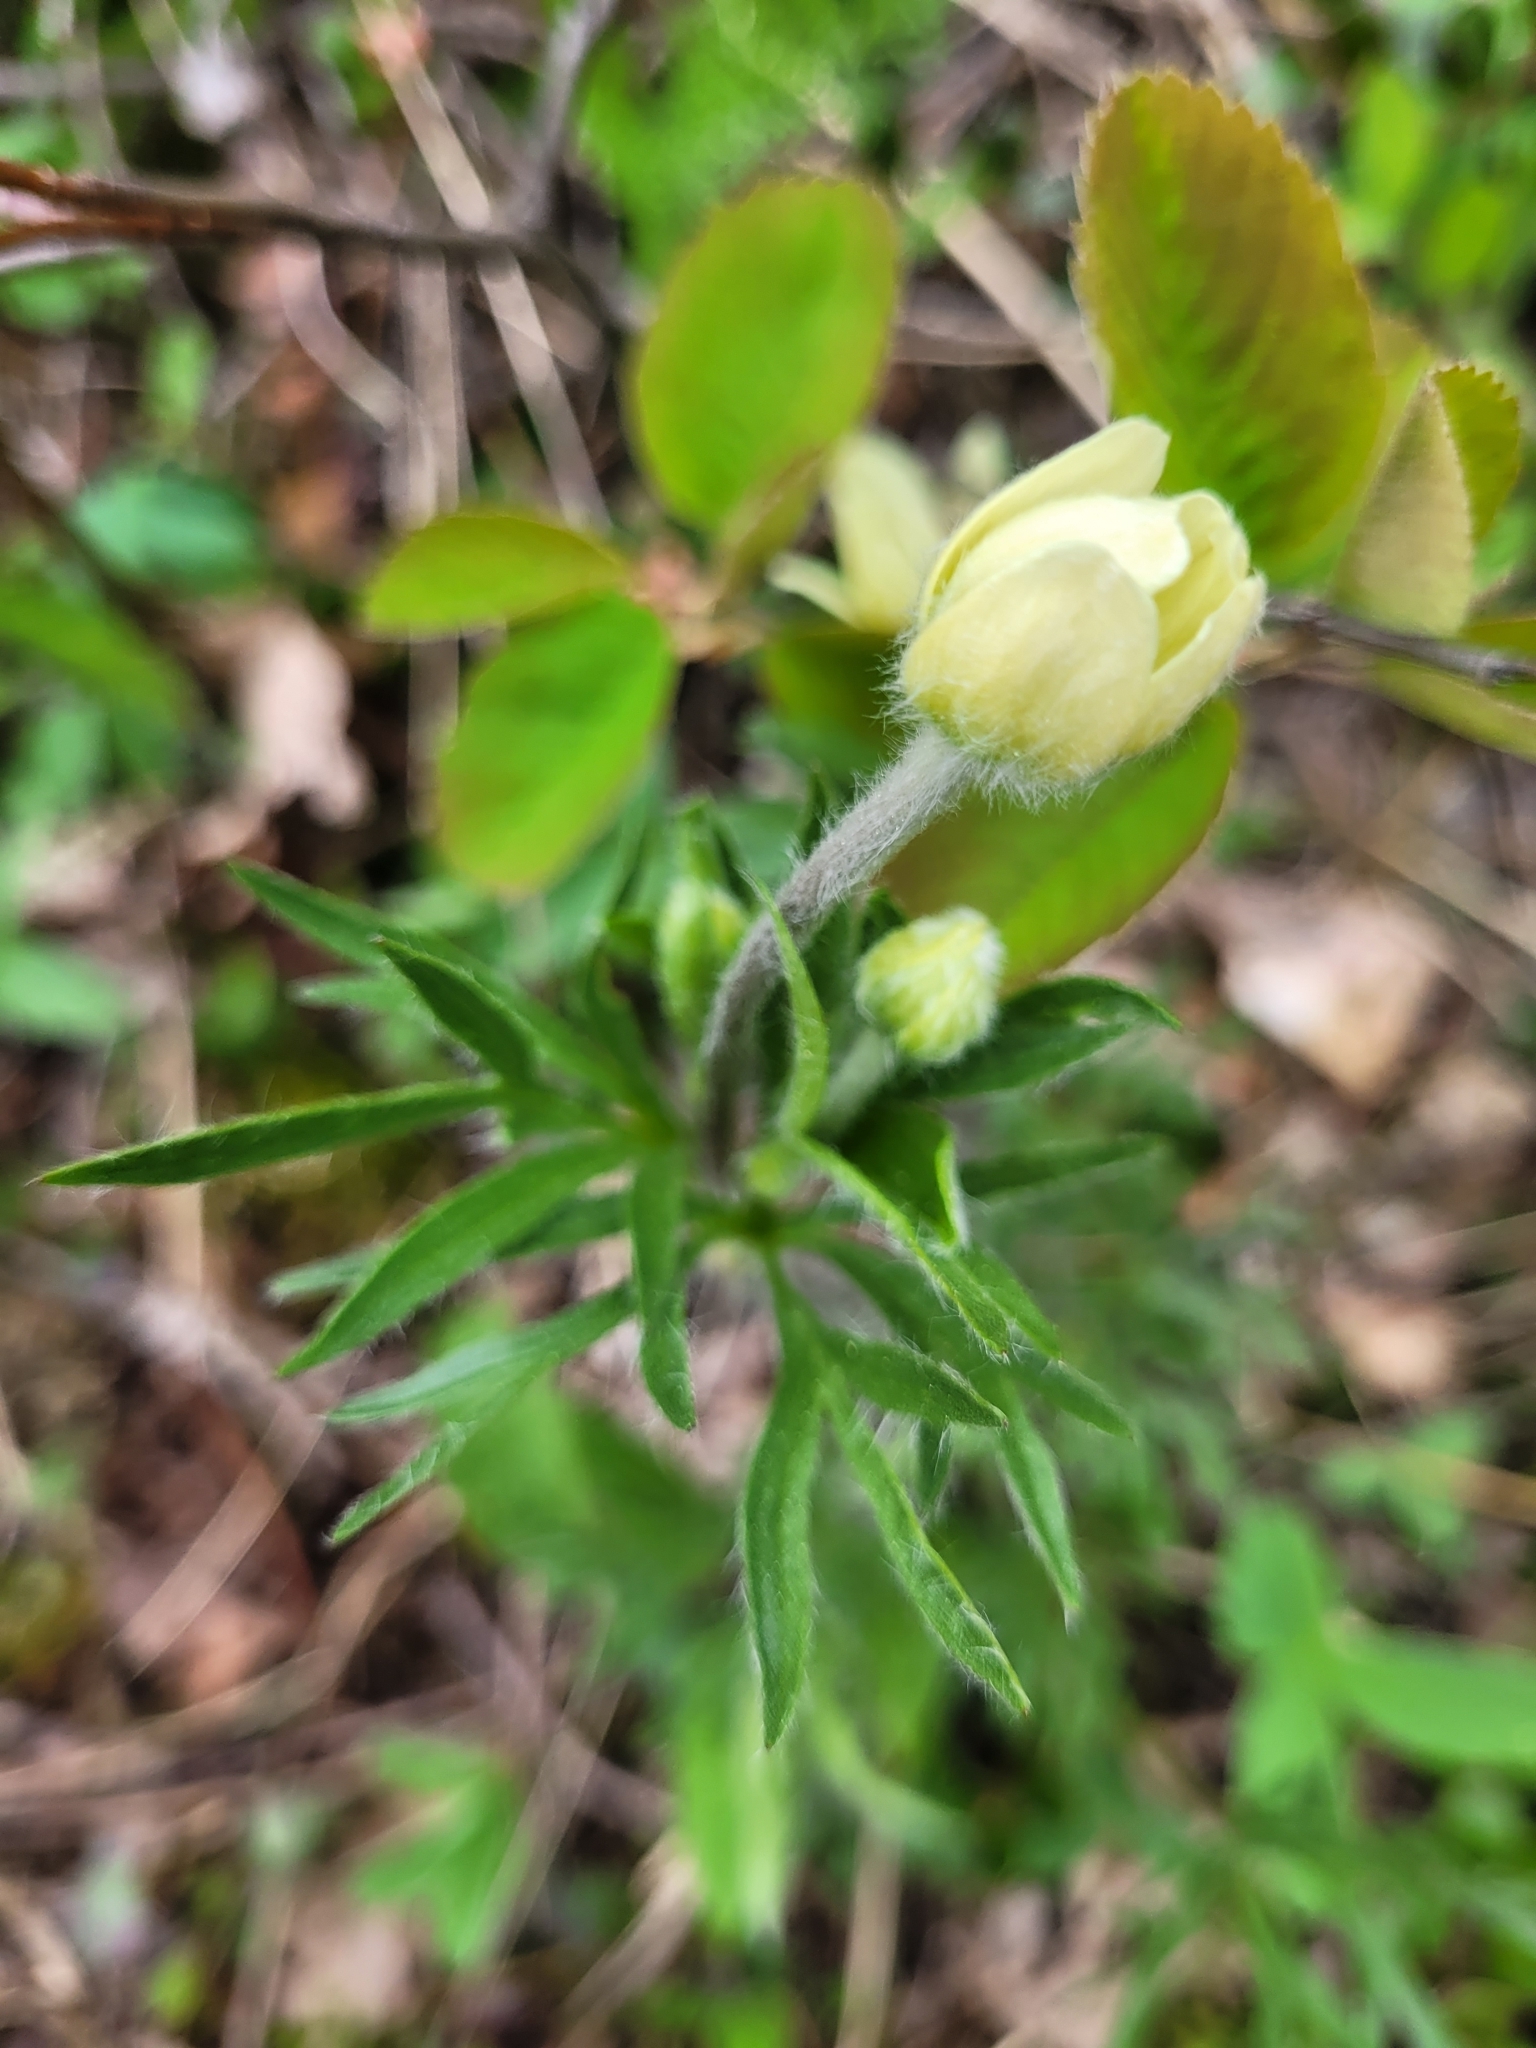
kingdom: Plantae
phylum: Tracheophyta
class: Magnoliopsida
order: Ranunculales
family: Ranunculaceae
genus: Anemone
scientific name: Anemone multifida
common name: Bird's-foot anemone
